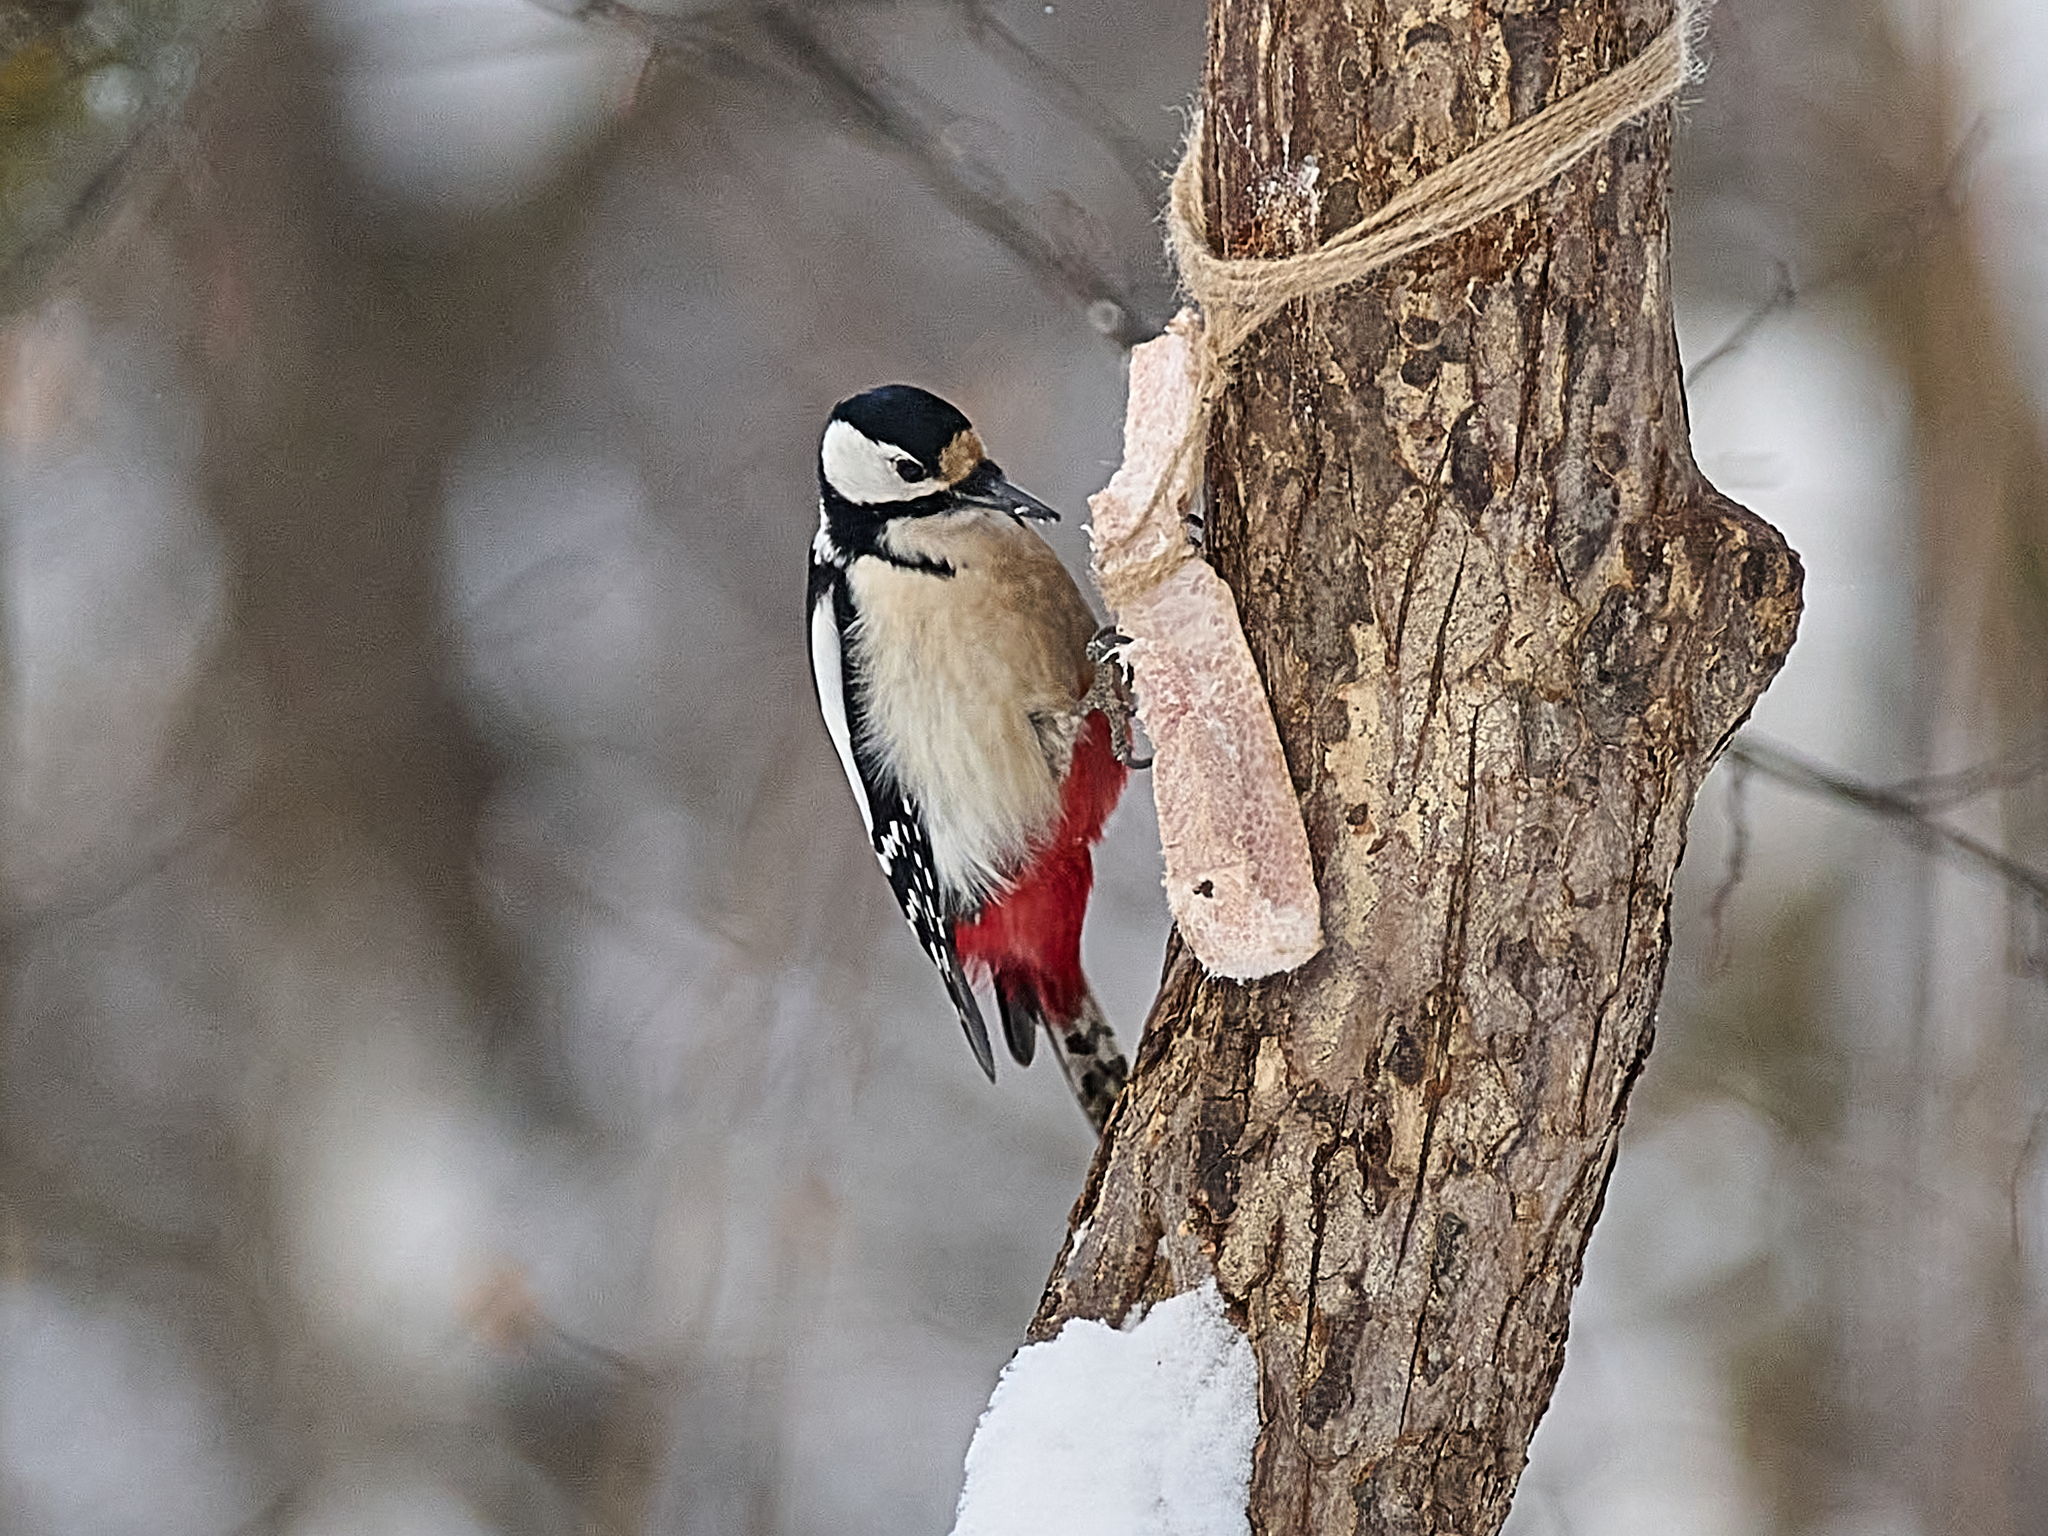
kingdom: Animalia
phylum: Chordata
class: Aves
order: Piciformes
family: Picidae
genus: Dendrocopos
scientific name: Dendrocopos major
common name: Great spotted woodpecker
